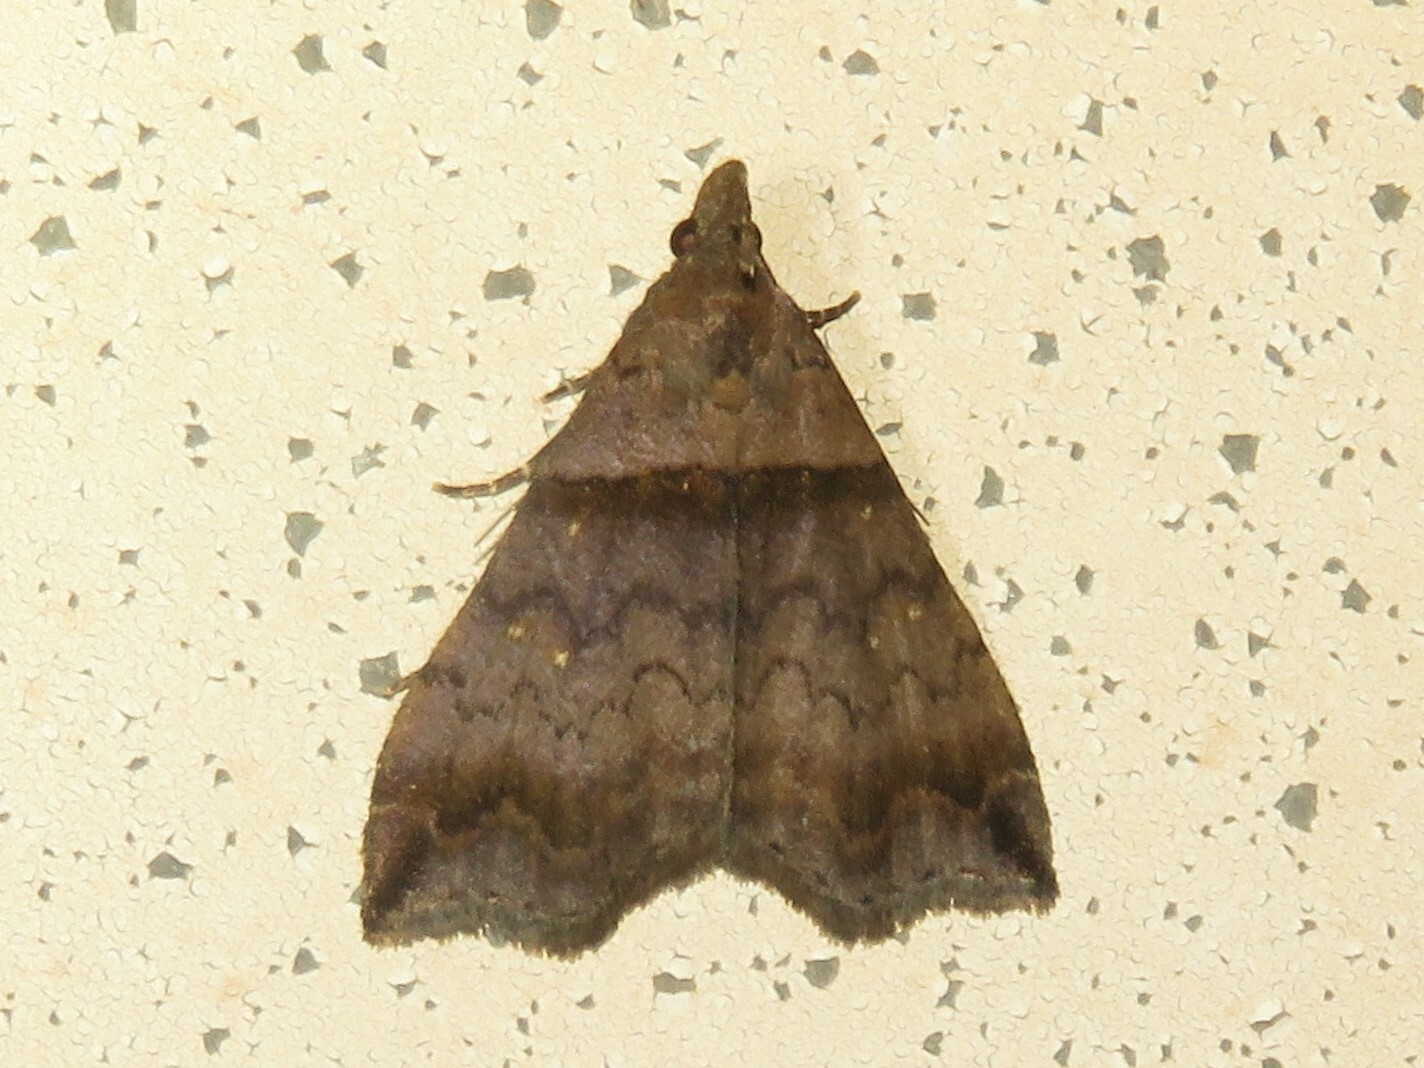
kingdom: Animalia
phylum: Arthropoda
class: Insecta
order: Lepidoptera
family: Erebidae
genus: Phaeolita
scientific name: Phaeolita pyramusalis
